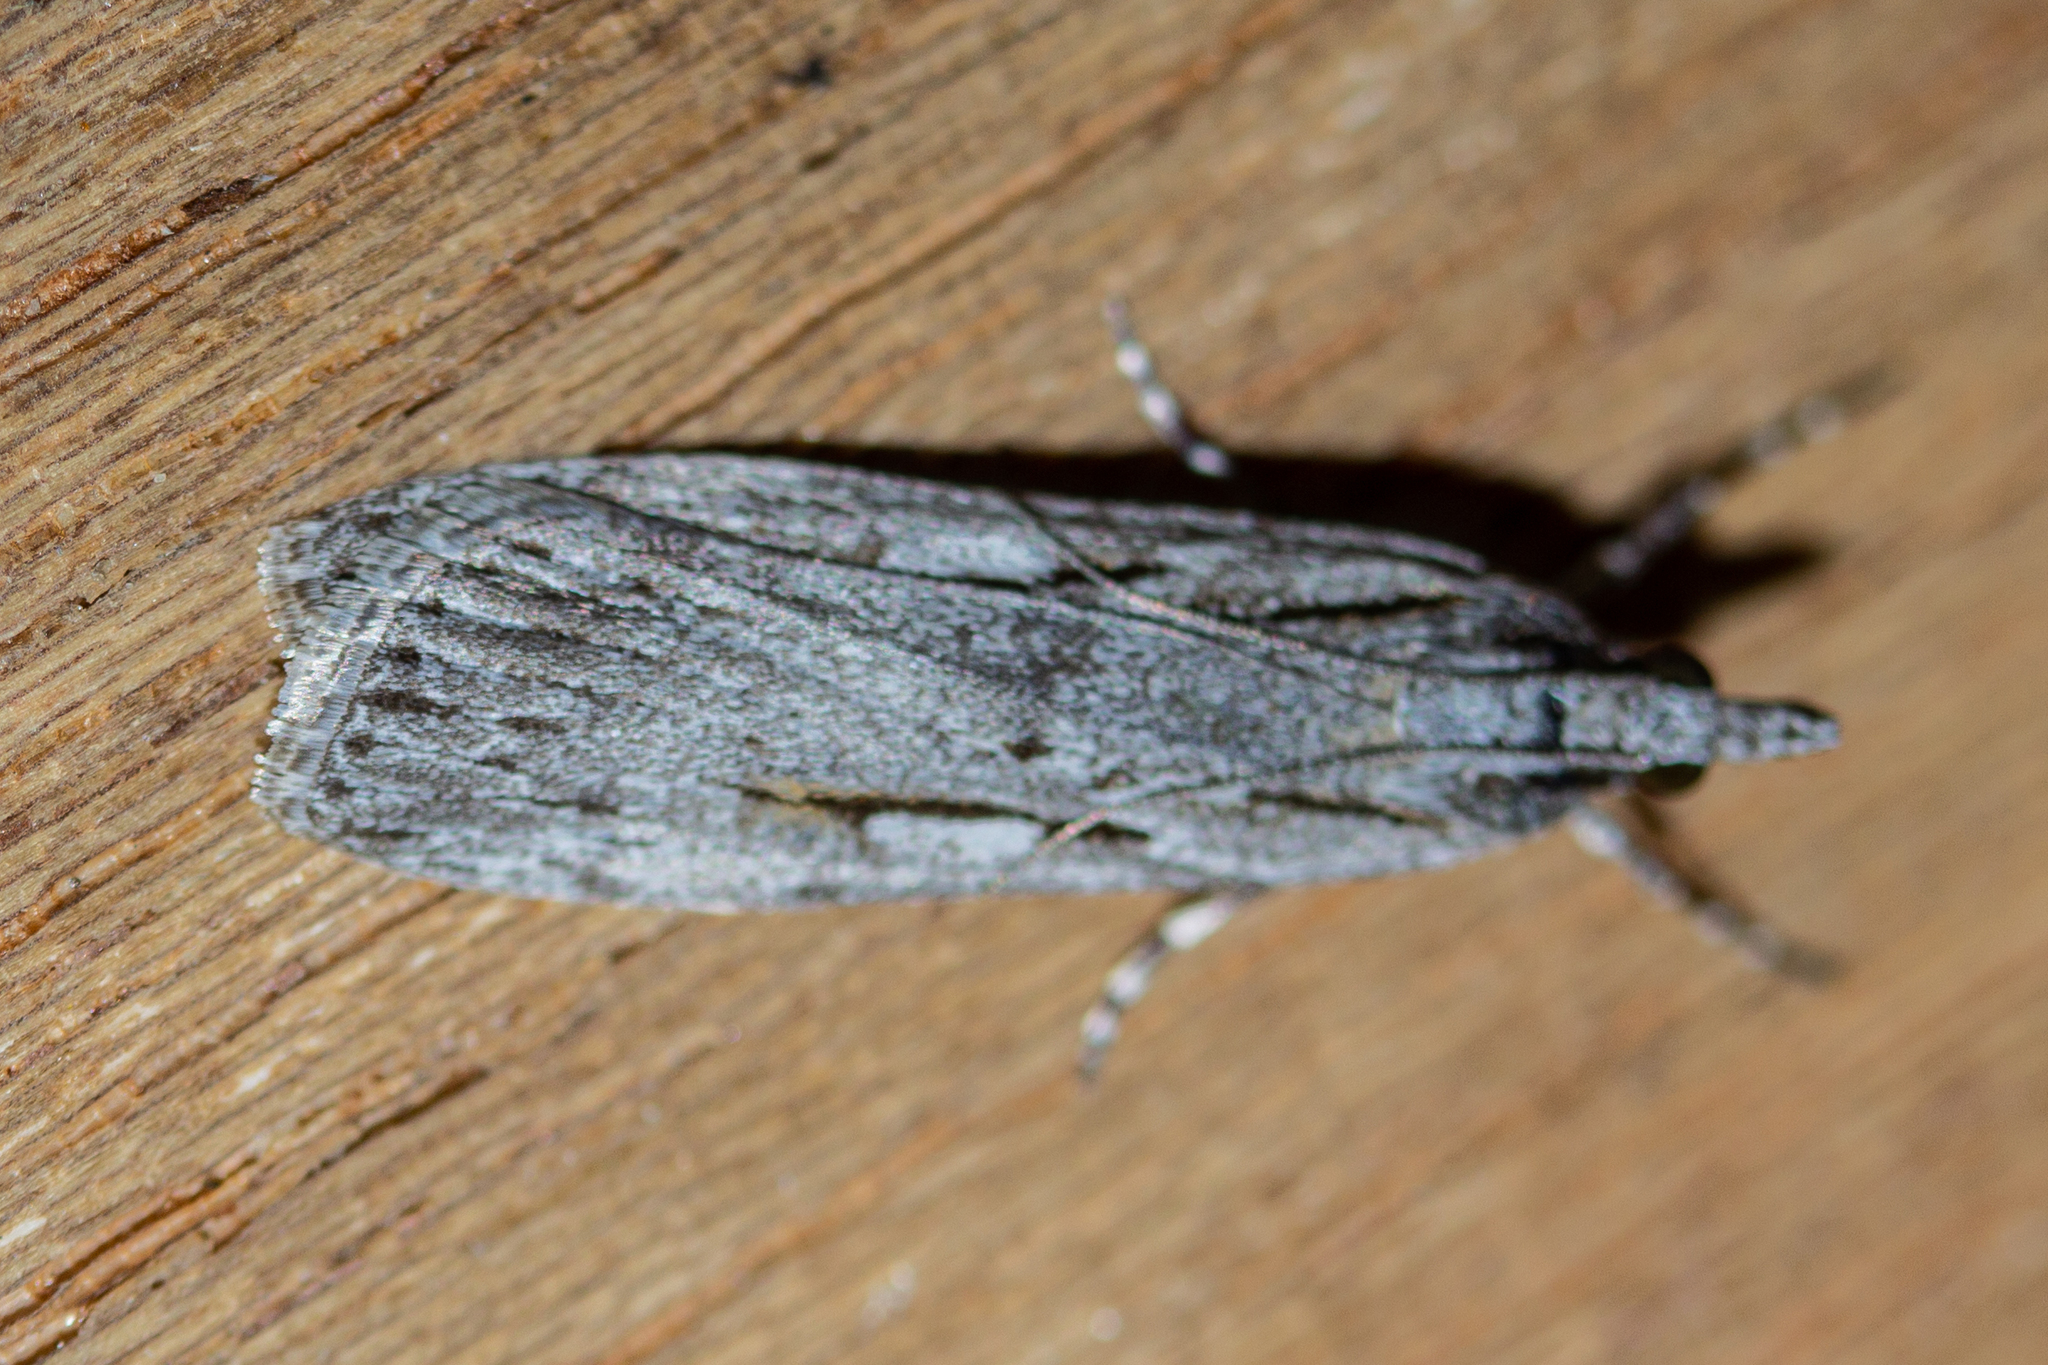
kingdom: Animalia
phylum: Arthropoda
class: Insecta
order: Lepidoptera
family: Crambidae
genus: Scoparia
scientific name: Scoparia indistinctalis
